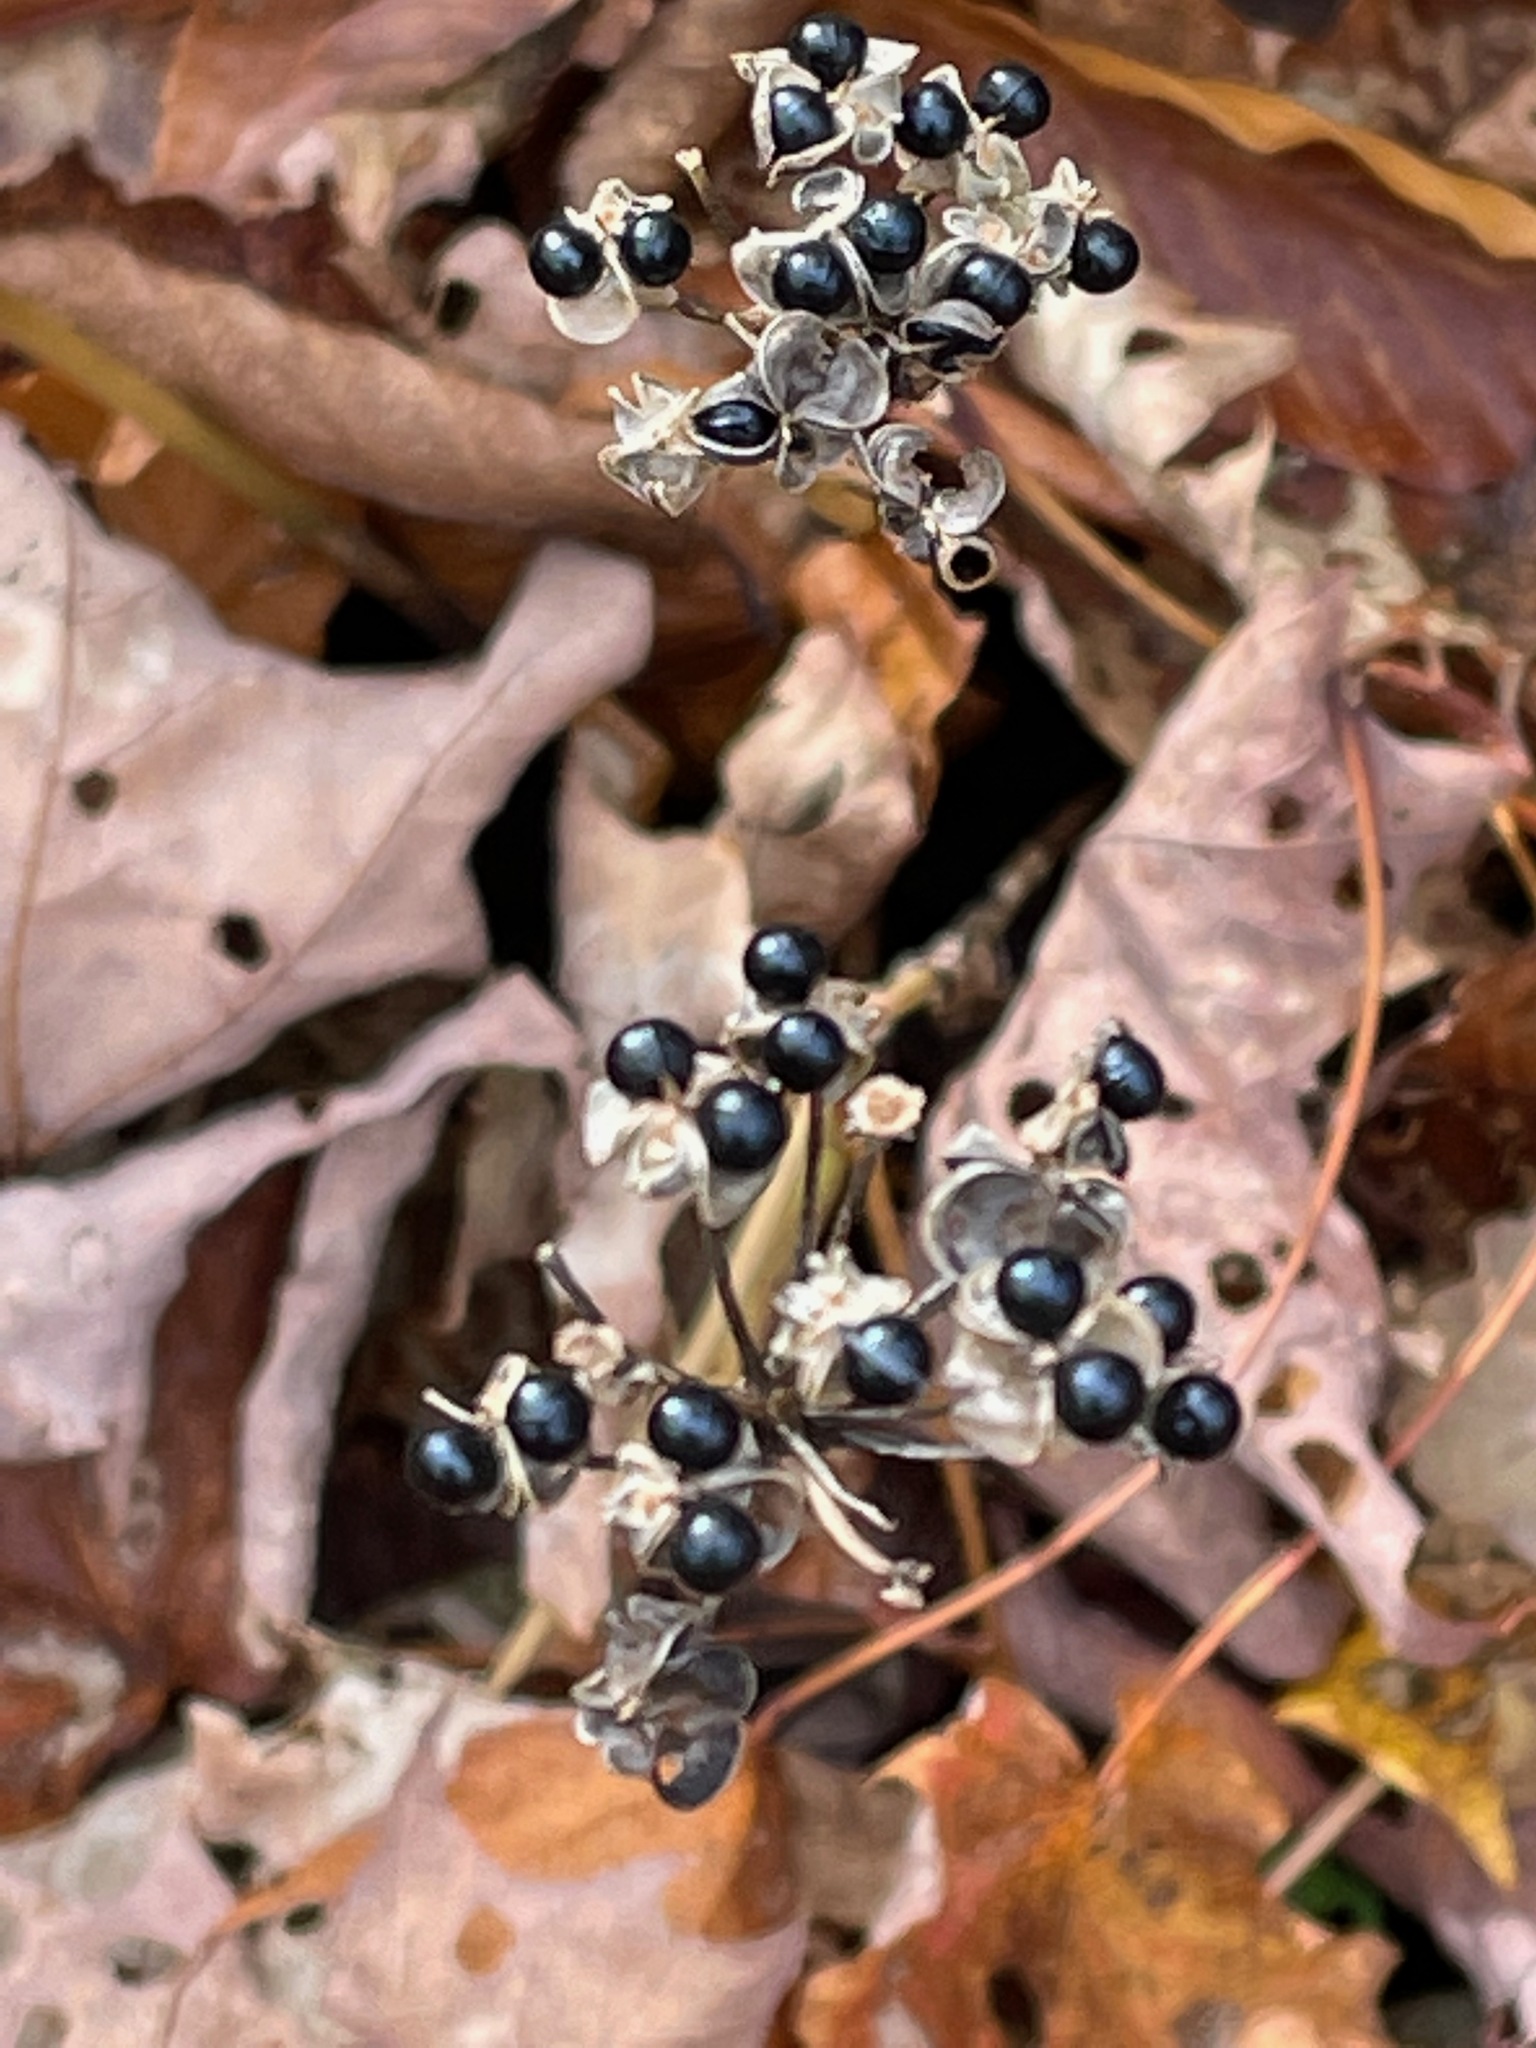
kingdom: Plantae
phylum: Tracheophyta
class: Liliopsida
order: Asparagales
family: Amaryllidaceae
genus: Allium
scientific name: Allium tricoccum
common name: Ramp
